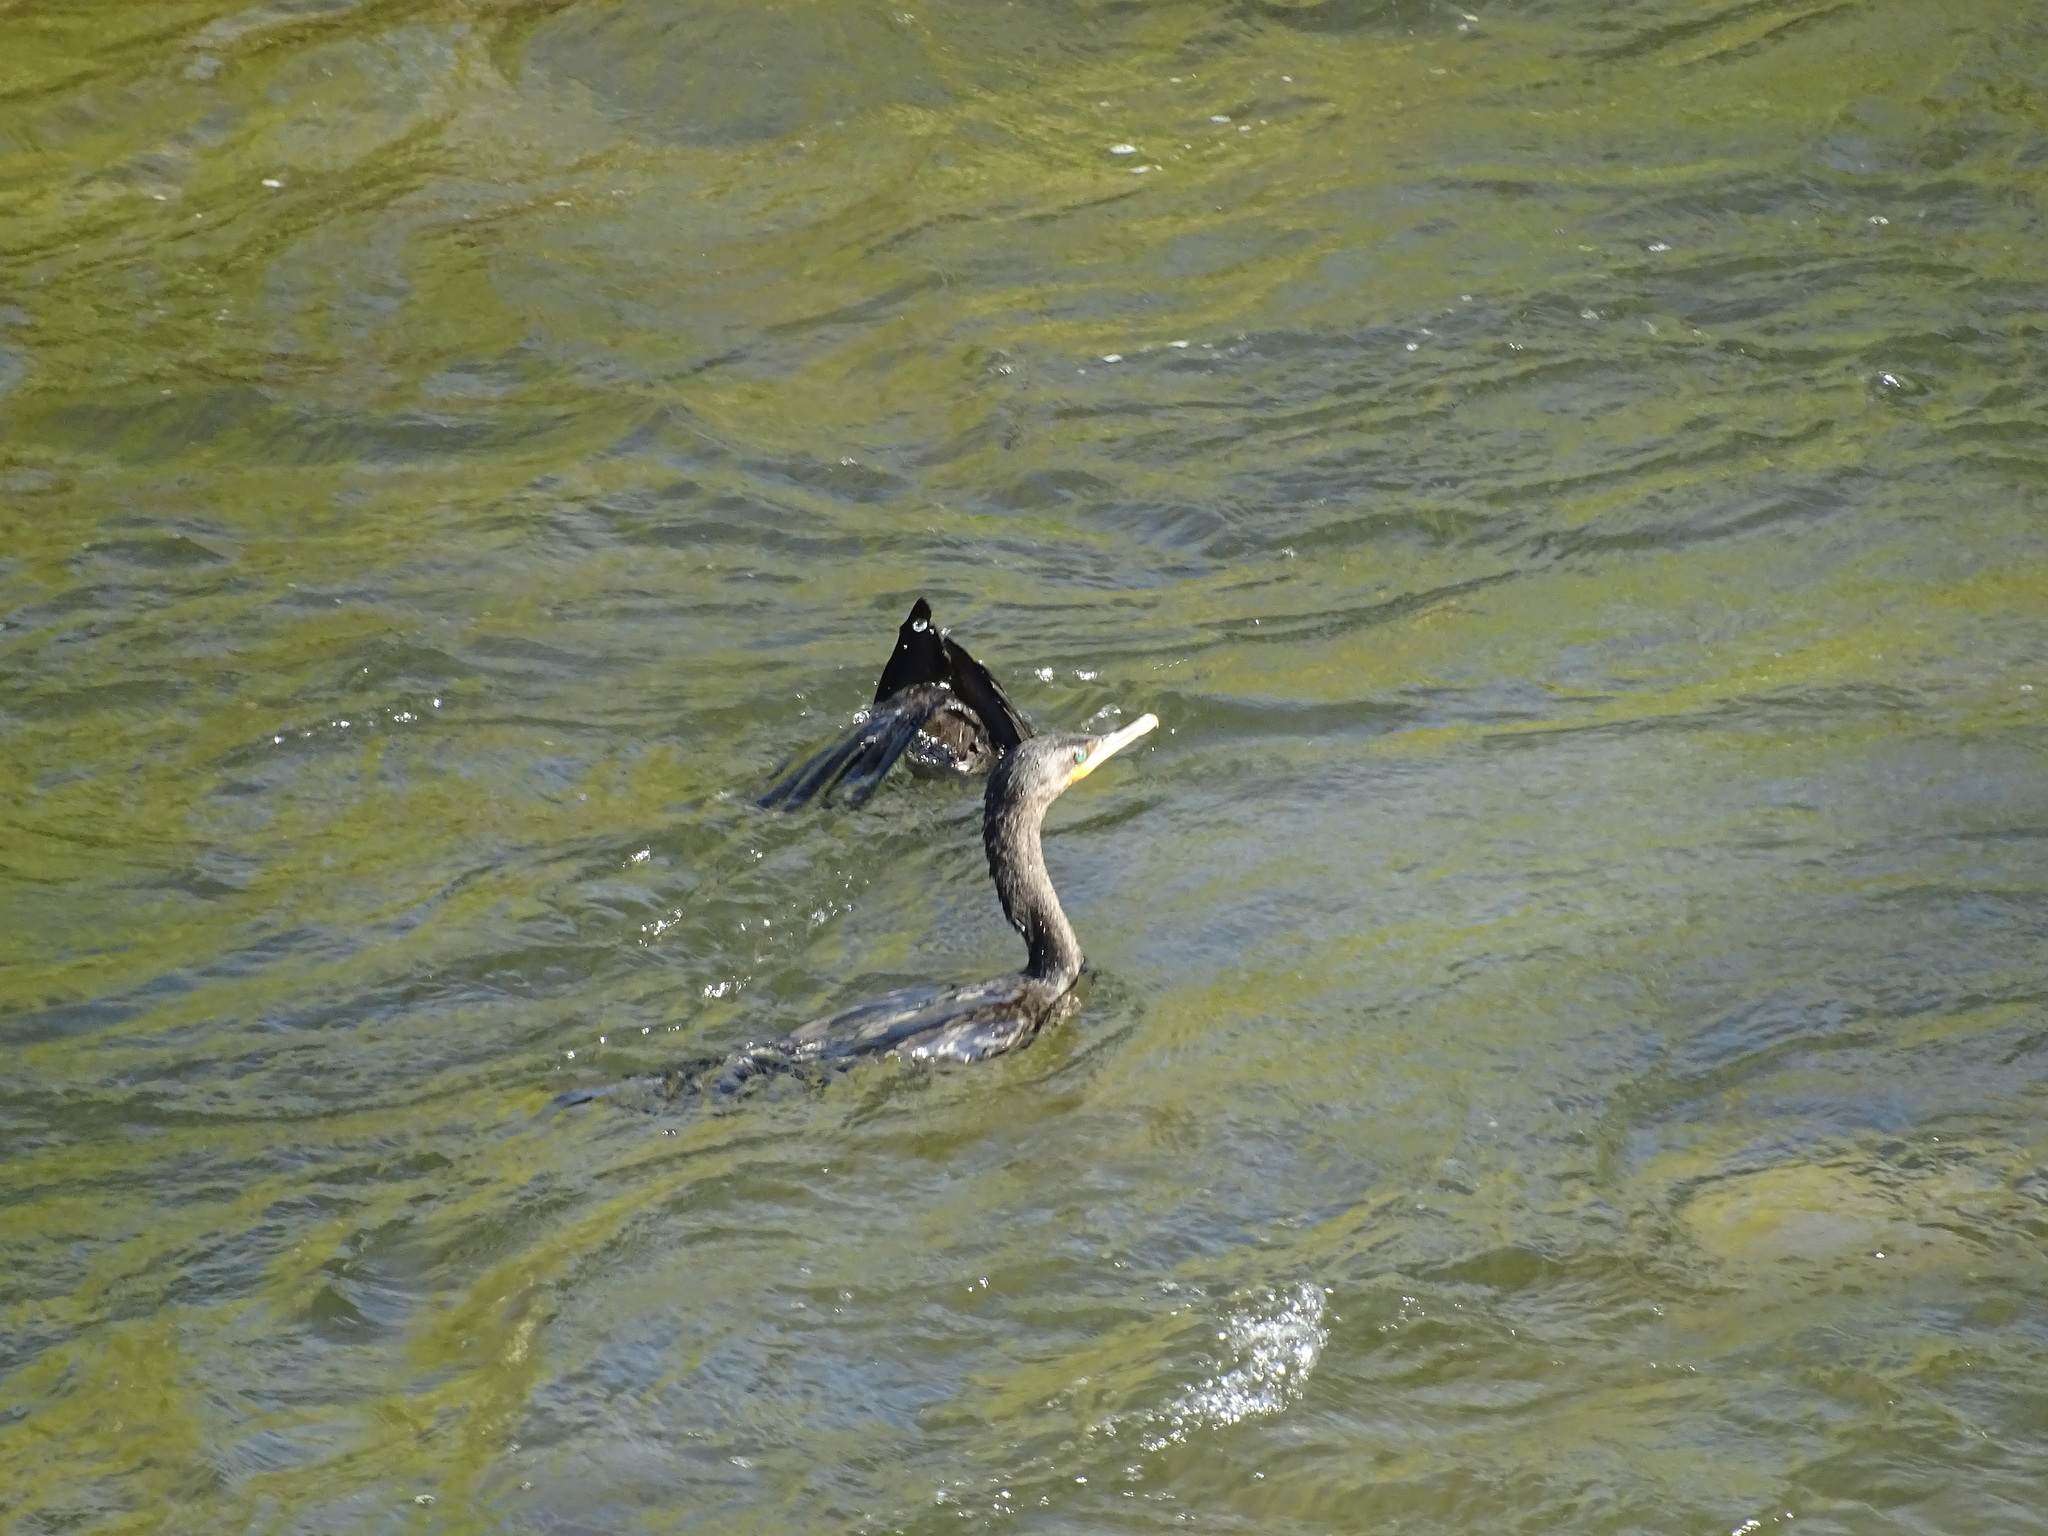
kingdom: Animalia
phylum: Chordata
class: Aves
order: Suliformes
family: Phalacrocoracidae
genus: Phalacrocorax
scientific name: Phalacrocorax brasilianus
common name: Neotropic cormorant
